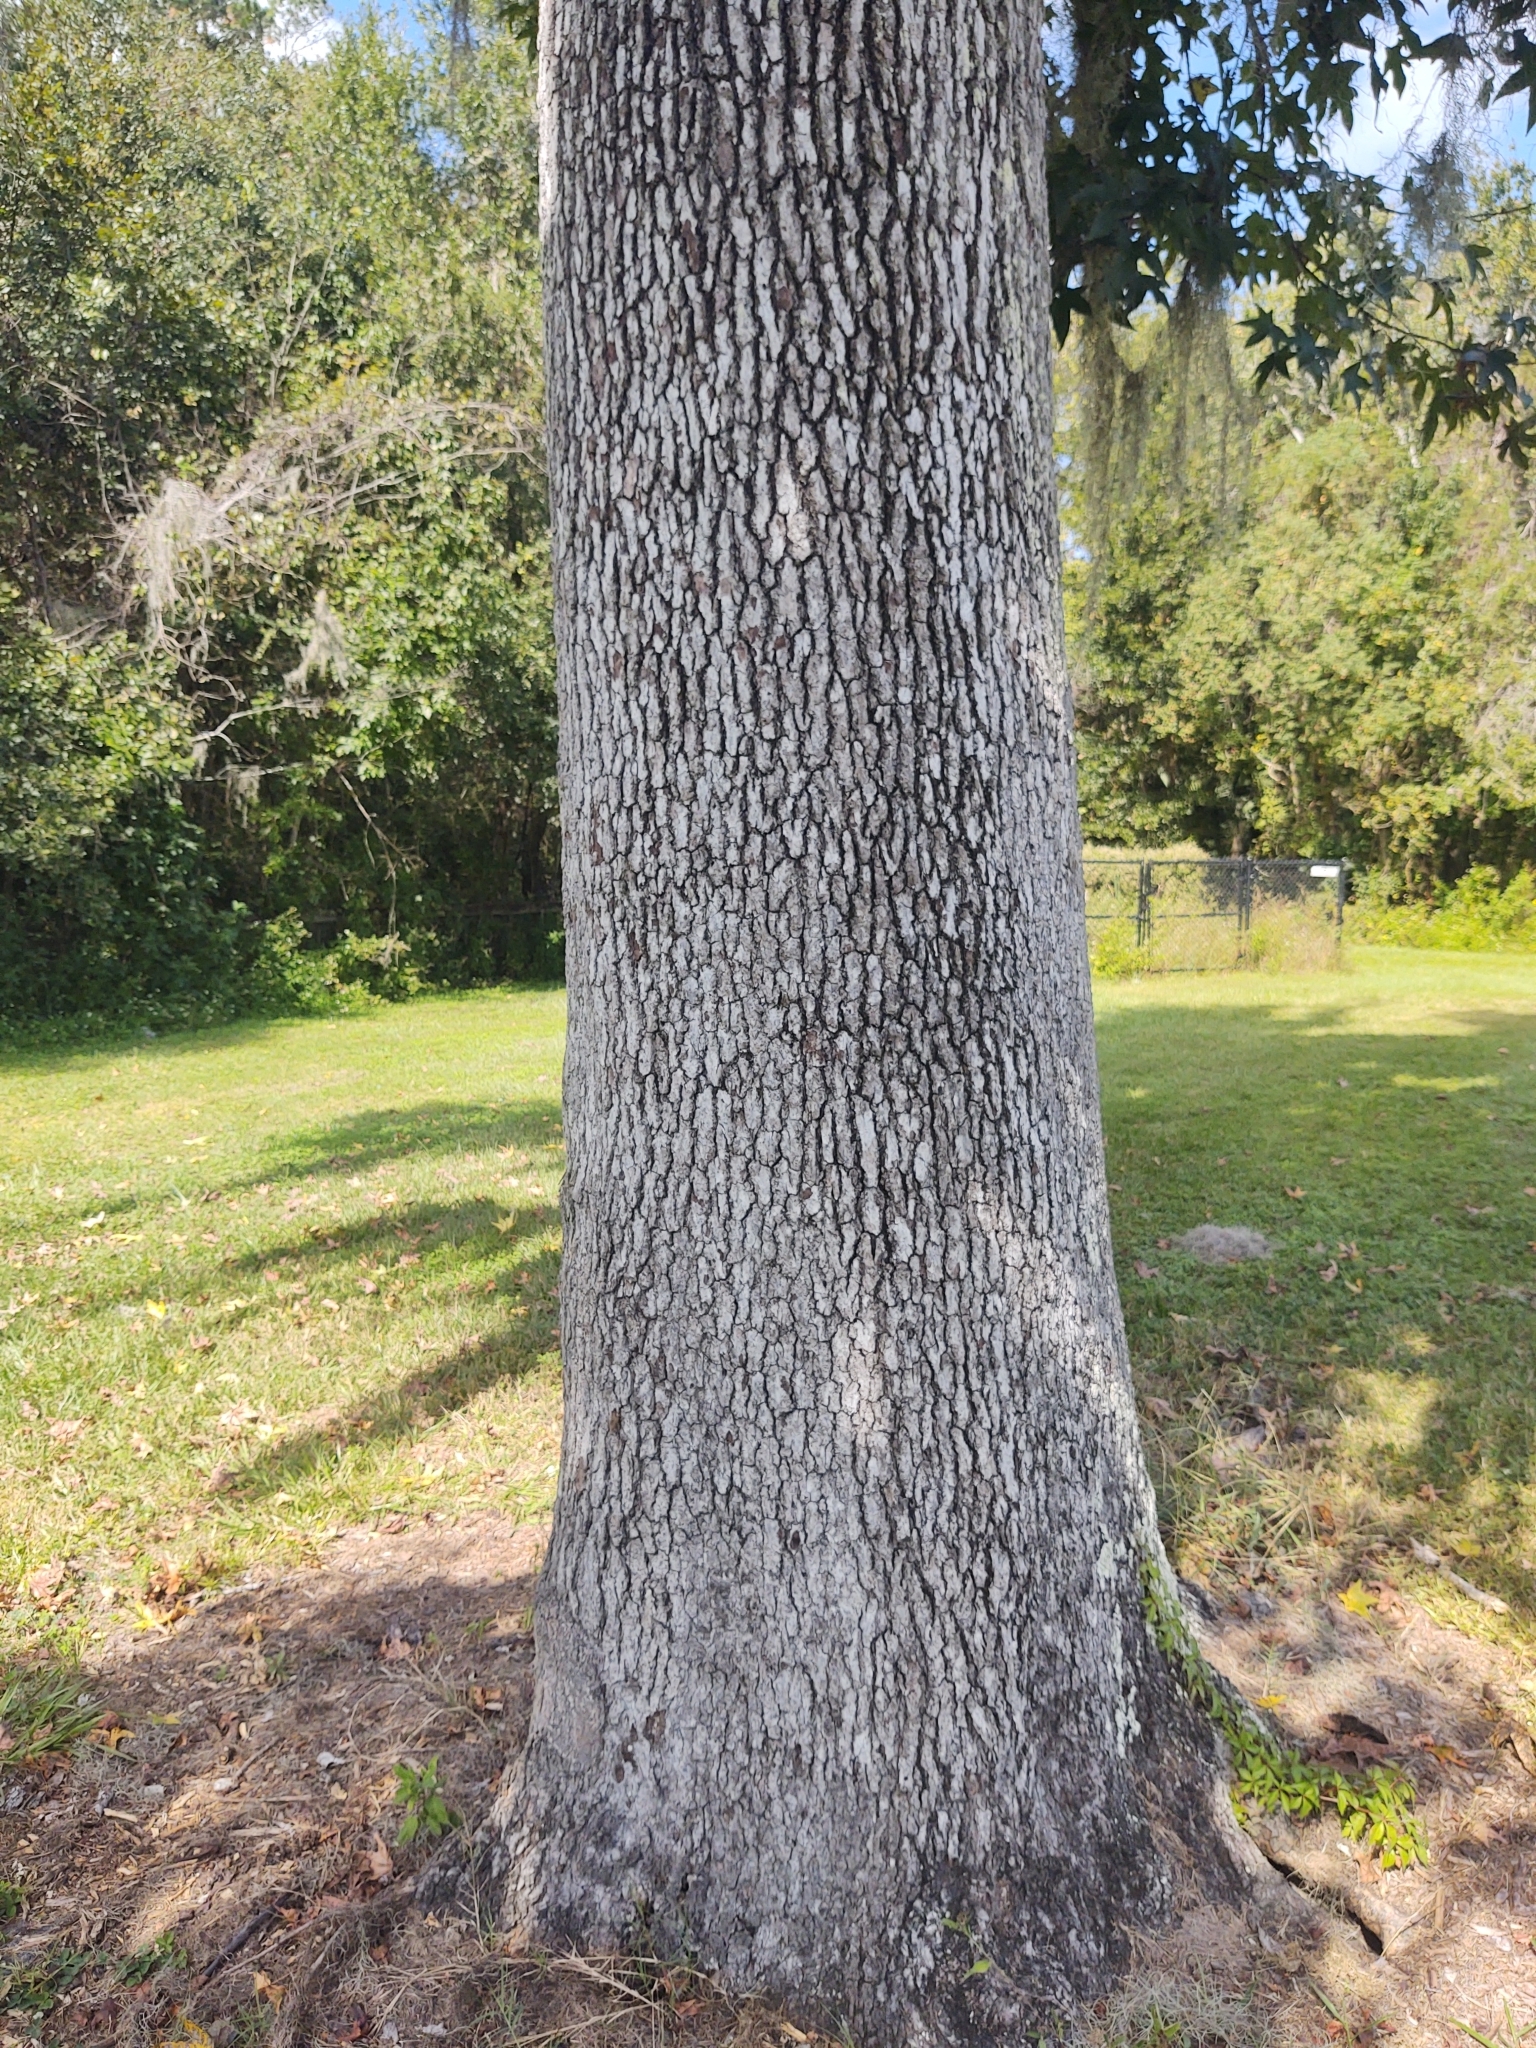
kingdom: Plantae
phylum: Tracheophyta
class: Magnoliopsida
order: Saxifragales
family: Altingiaceae
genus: Liquidambar
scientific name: Liquidambar styraciflua
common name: Sweet gum
